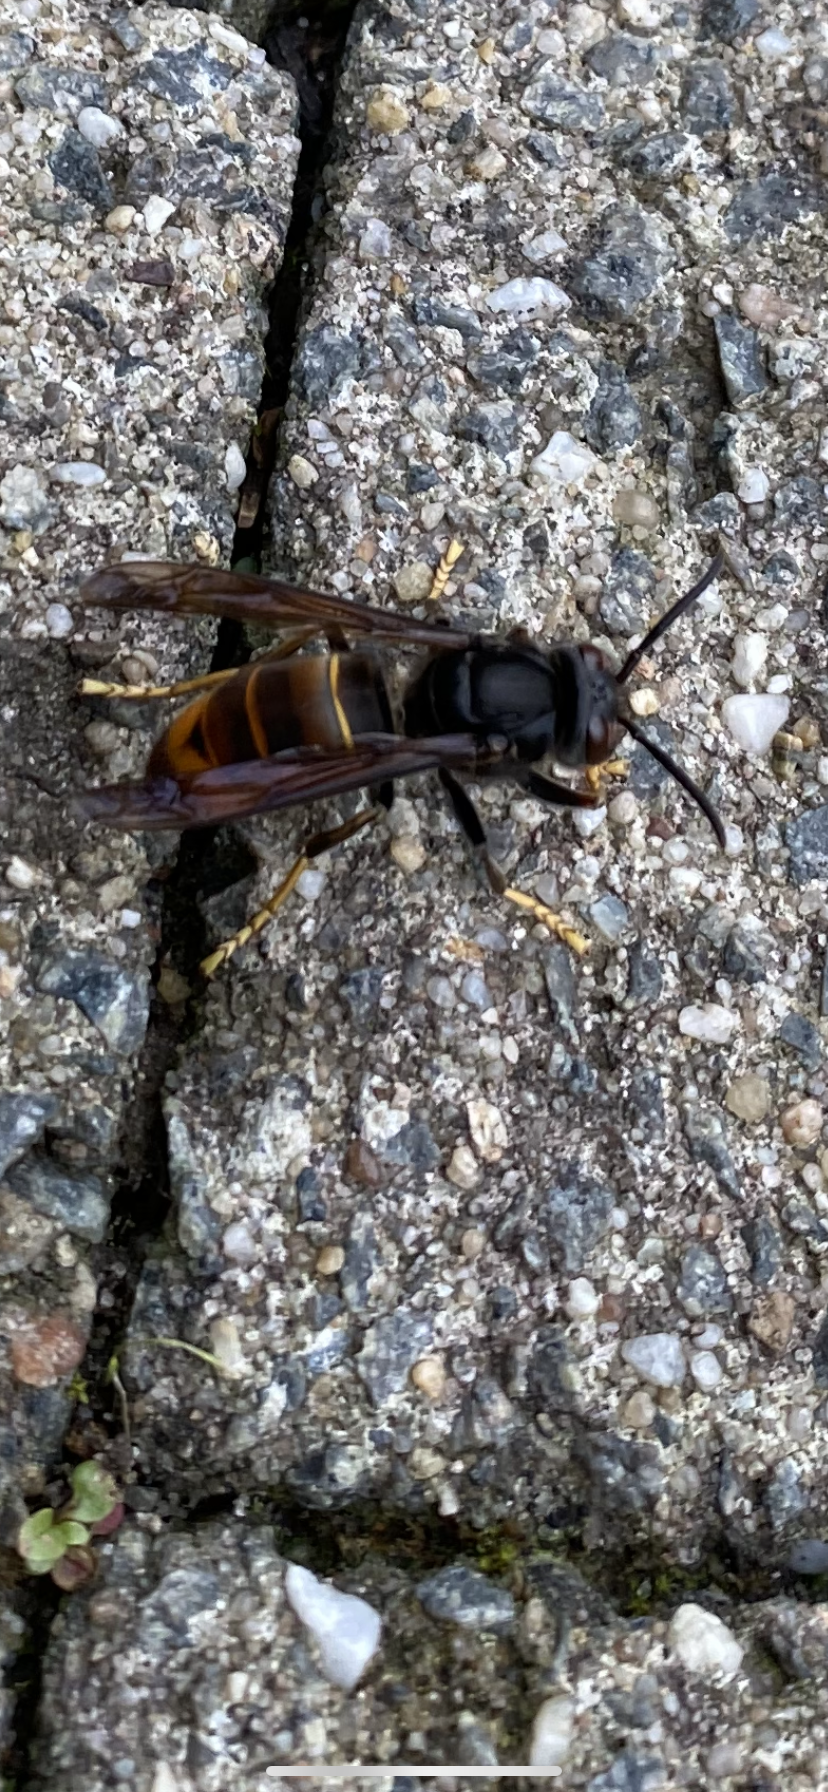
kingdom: Animalia
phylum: Arthropoda
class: Insecta
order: Hymenoptera
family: Vespidae
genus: Vespa
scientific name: Vespa velutina
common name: Asian hornet
